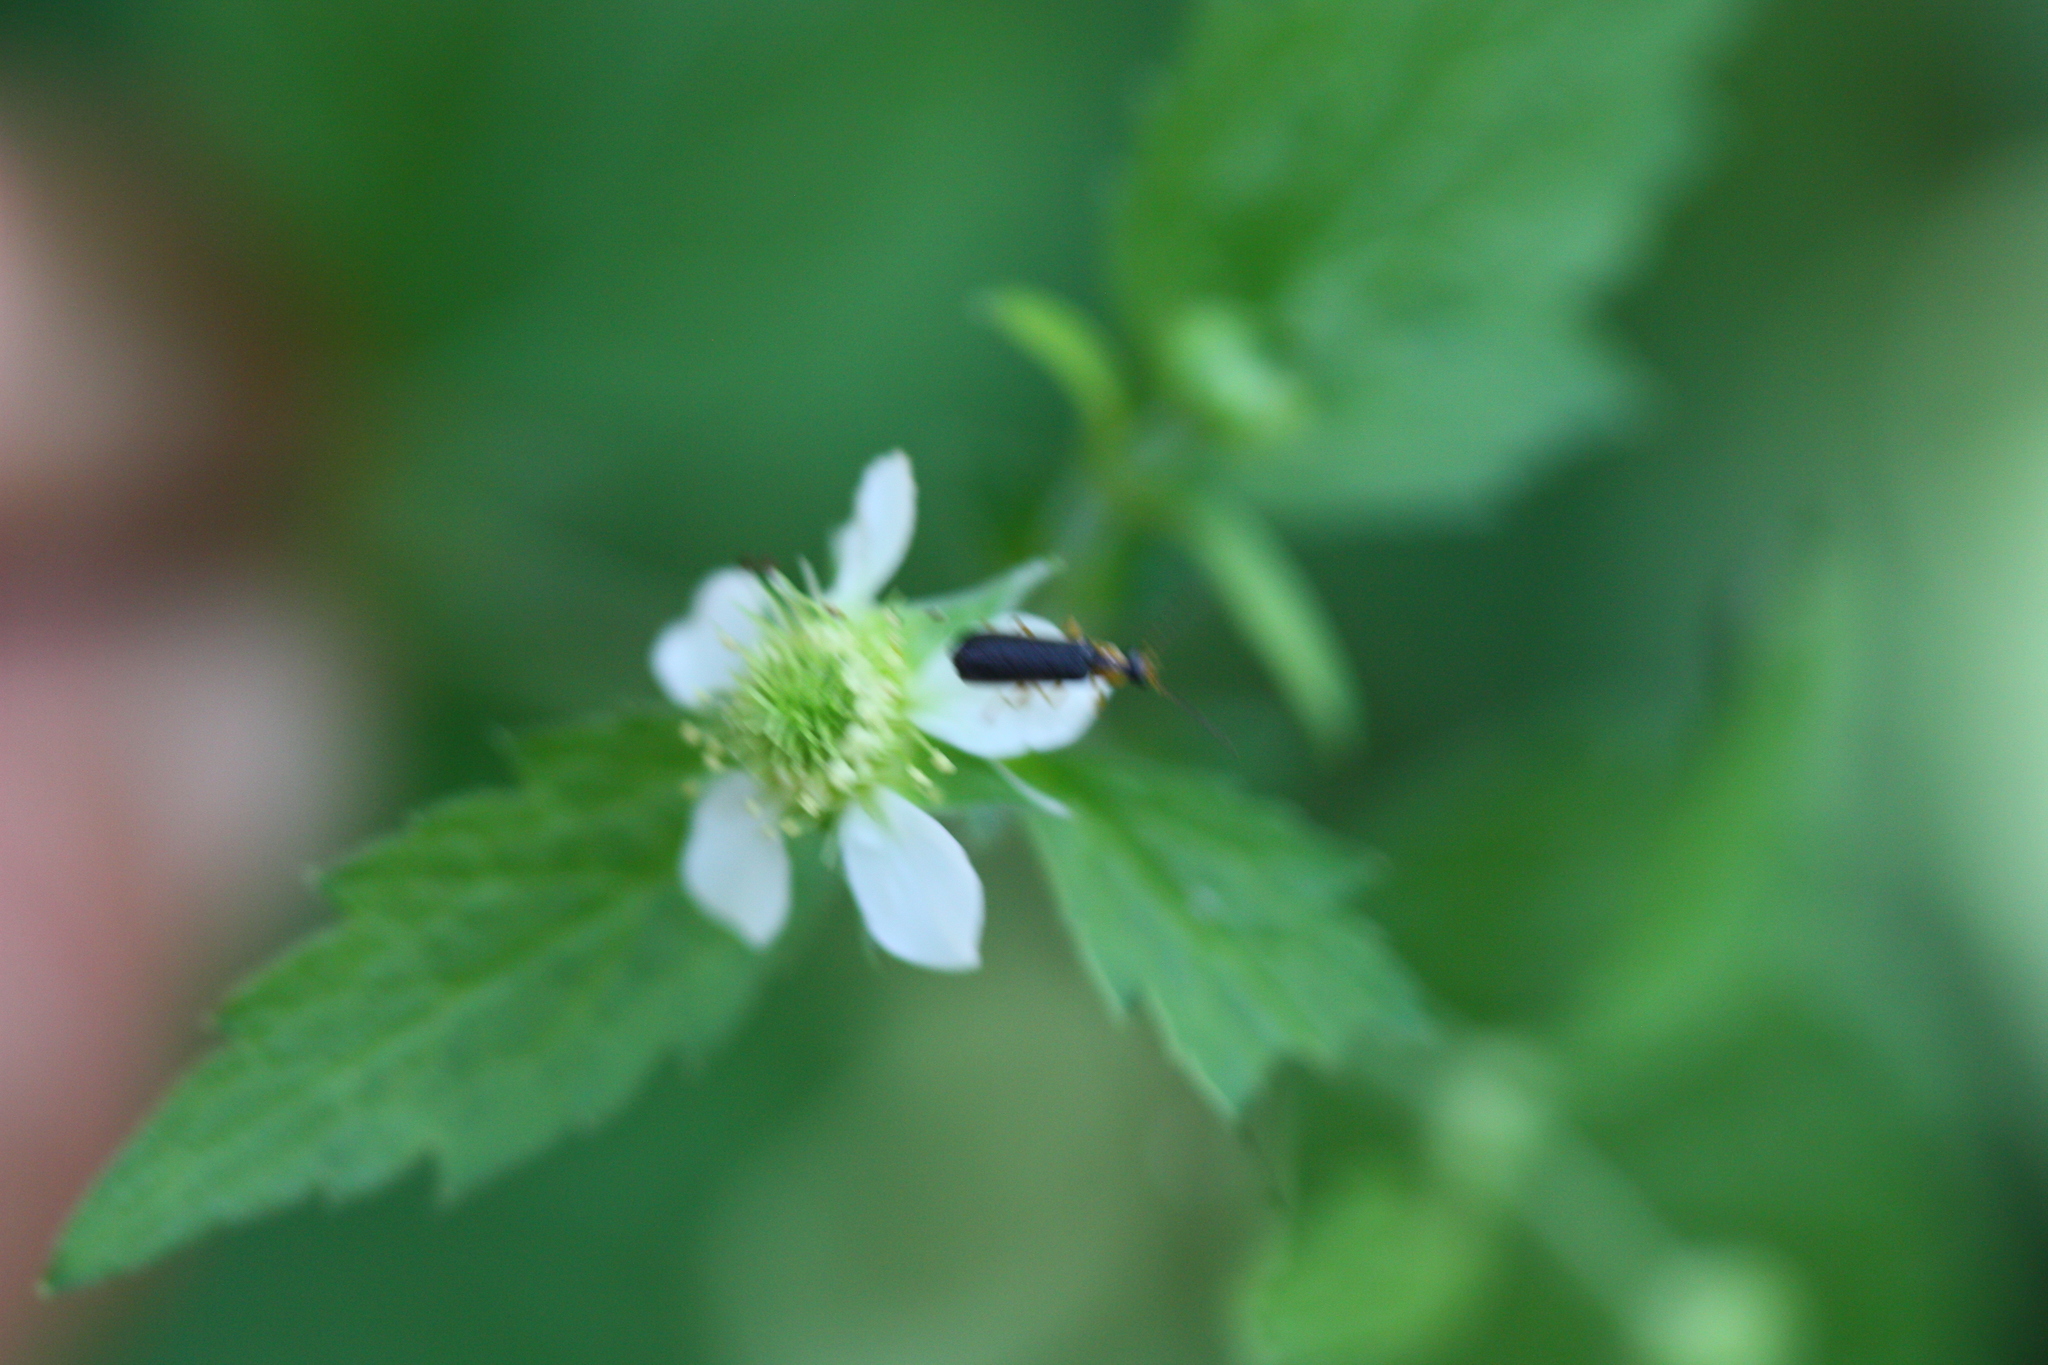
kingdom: Plantae
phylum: Tracheophyta
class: Magnoliopsida
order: Rosales
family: Rosaceae
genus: Geum
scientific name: Geum canadense
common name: White avens
